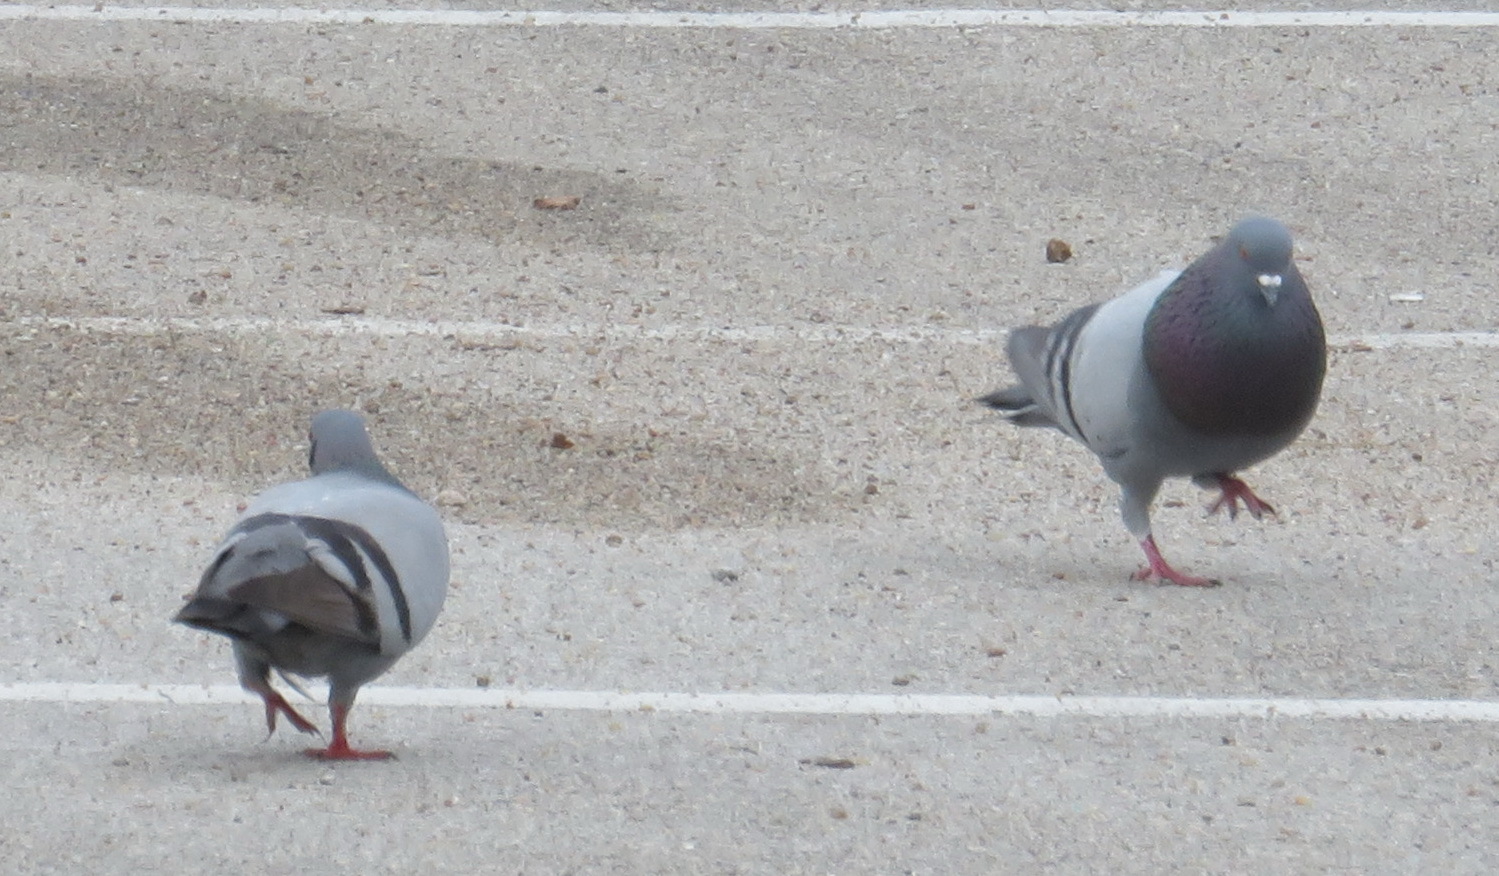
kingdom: Animalia
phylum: Chordata
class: Aves
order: Columbiformes
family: Columbidae
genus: Columba
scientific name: Columba livia
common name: Rock pigeon
